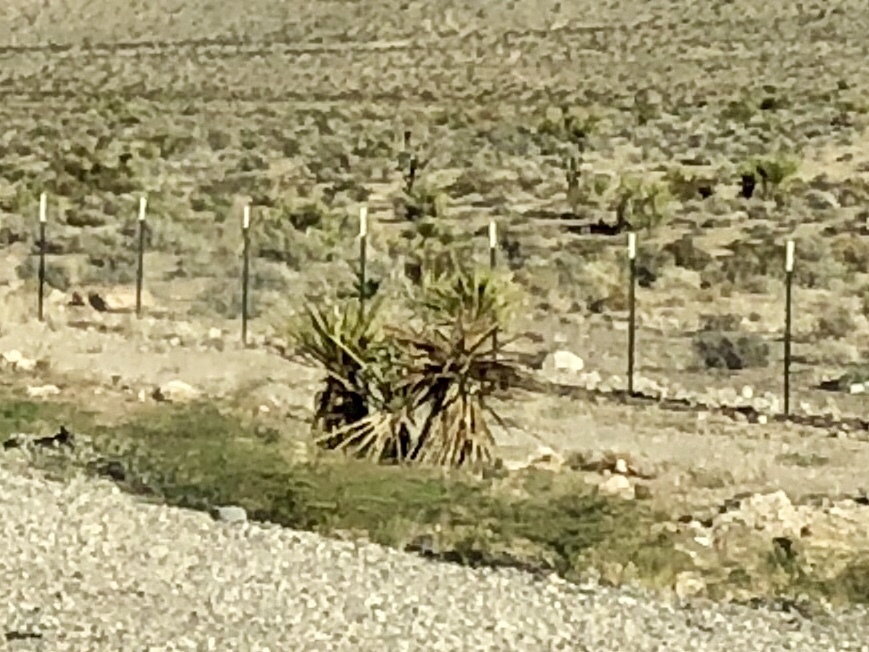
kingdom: Plantae
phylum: Tracheophyta
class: Liliopsida
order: Asparagales
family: Asparagaceae
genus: Yucca
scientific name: Yucca schidigera
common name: Mojave yucca
